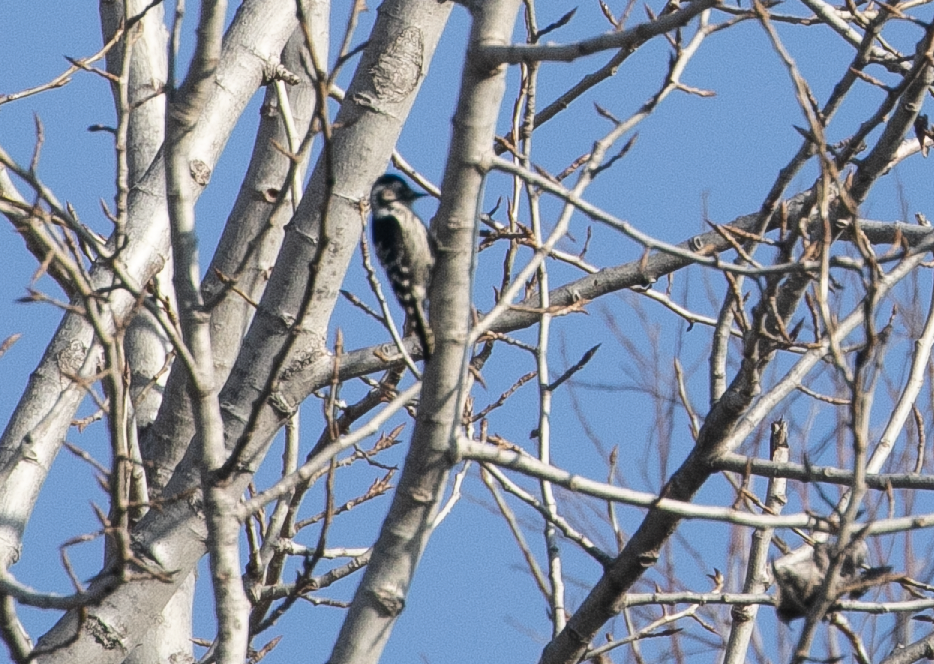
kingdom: Animalia
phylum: Chordata
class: Aves
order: Piciformes
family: Picidae
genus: Dryobates
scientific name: Dryobates minor
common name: Lesser spotted woodpecker
